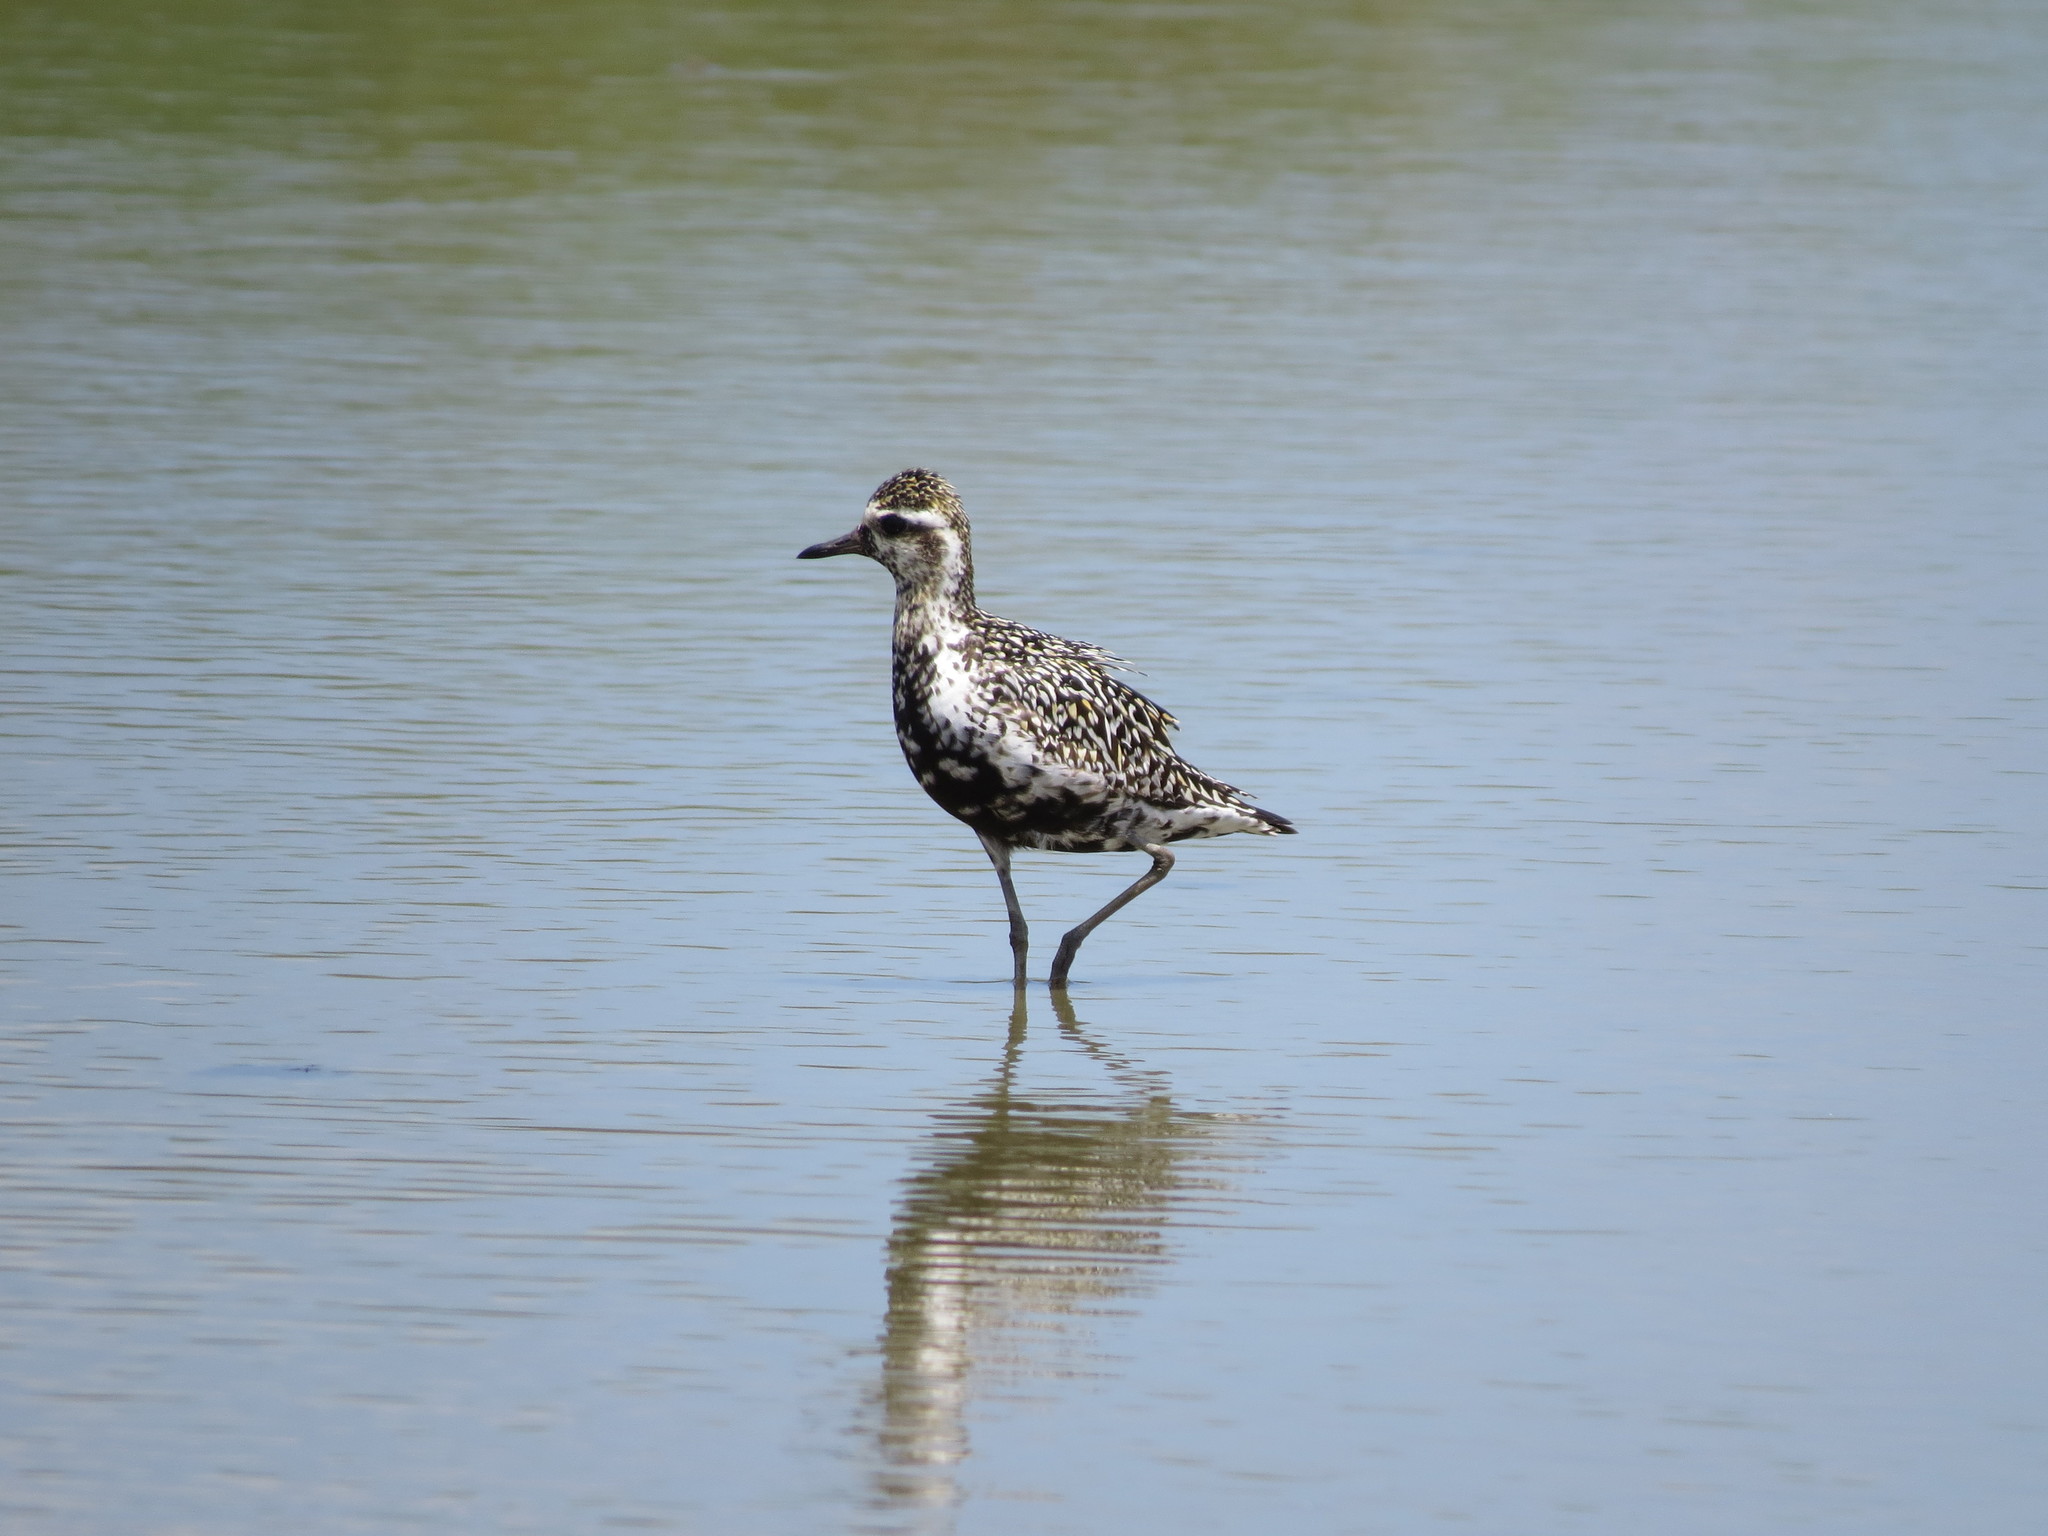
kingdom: Animalia
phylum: Chordata
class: Aves
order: Charadriiformes
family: Charadriidae
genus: Pluvialis
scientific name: Pluvialis fulva
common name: Pacific golden plover
